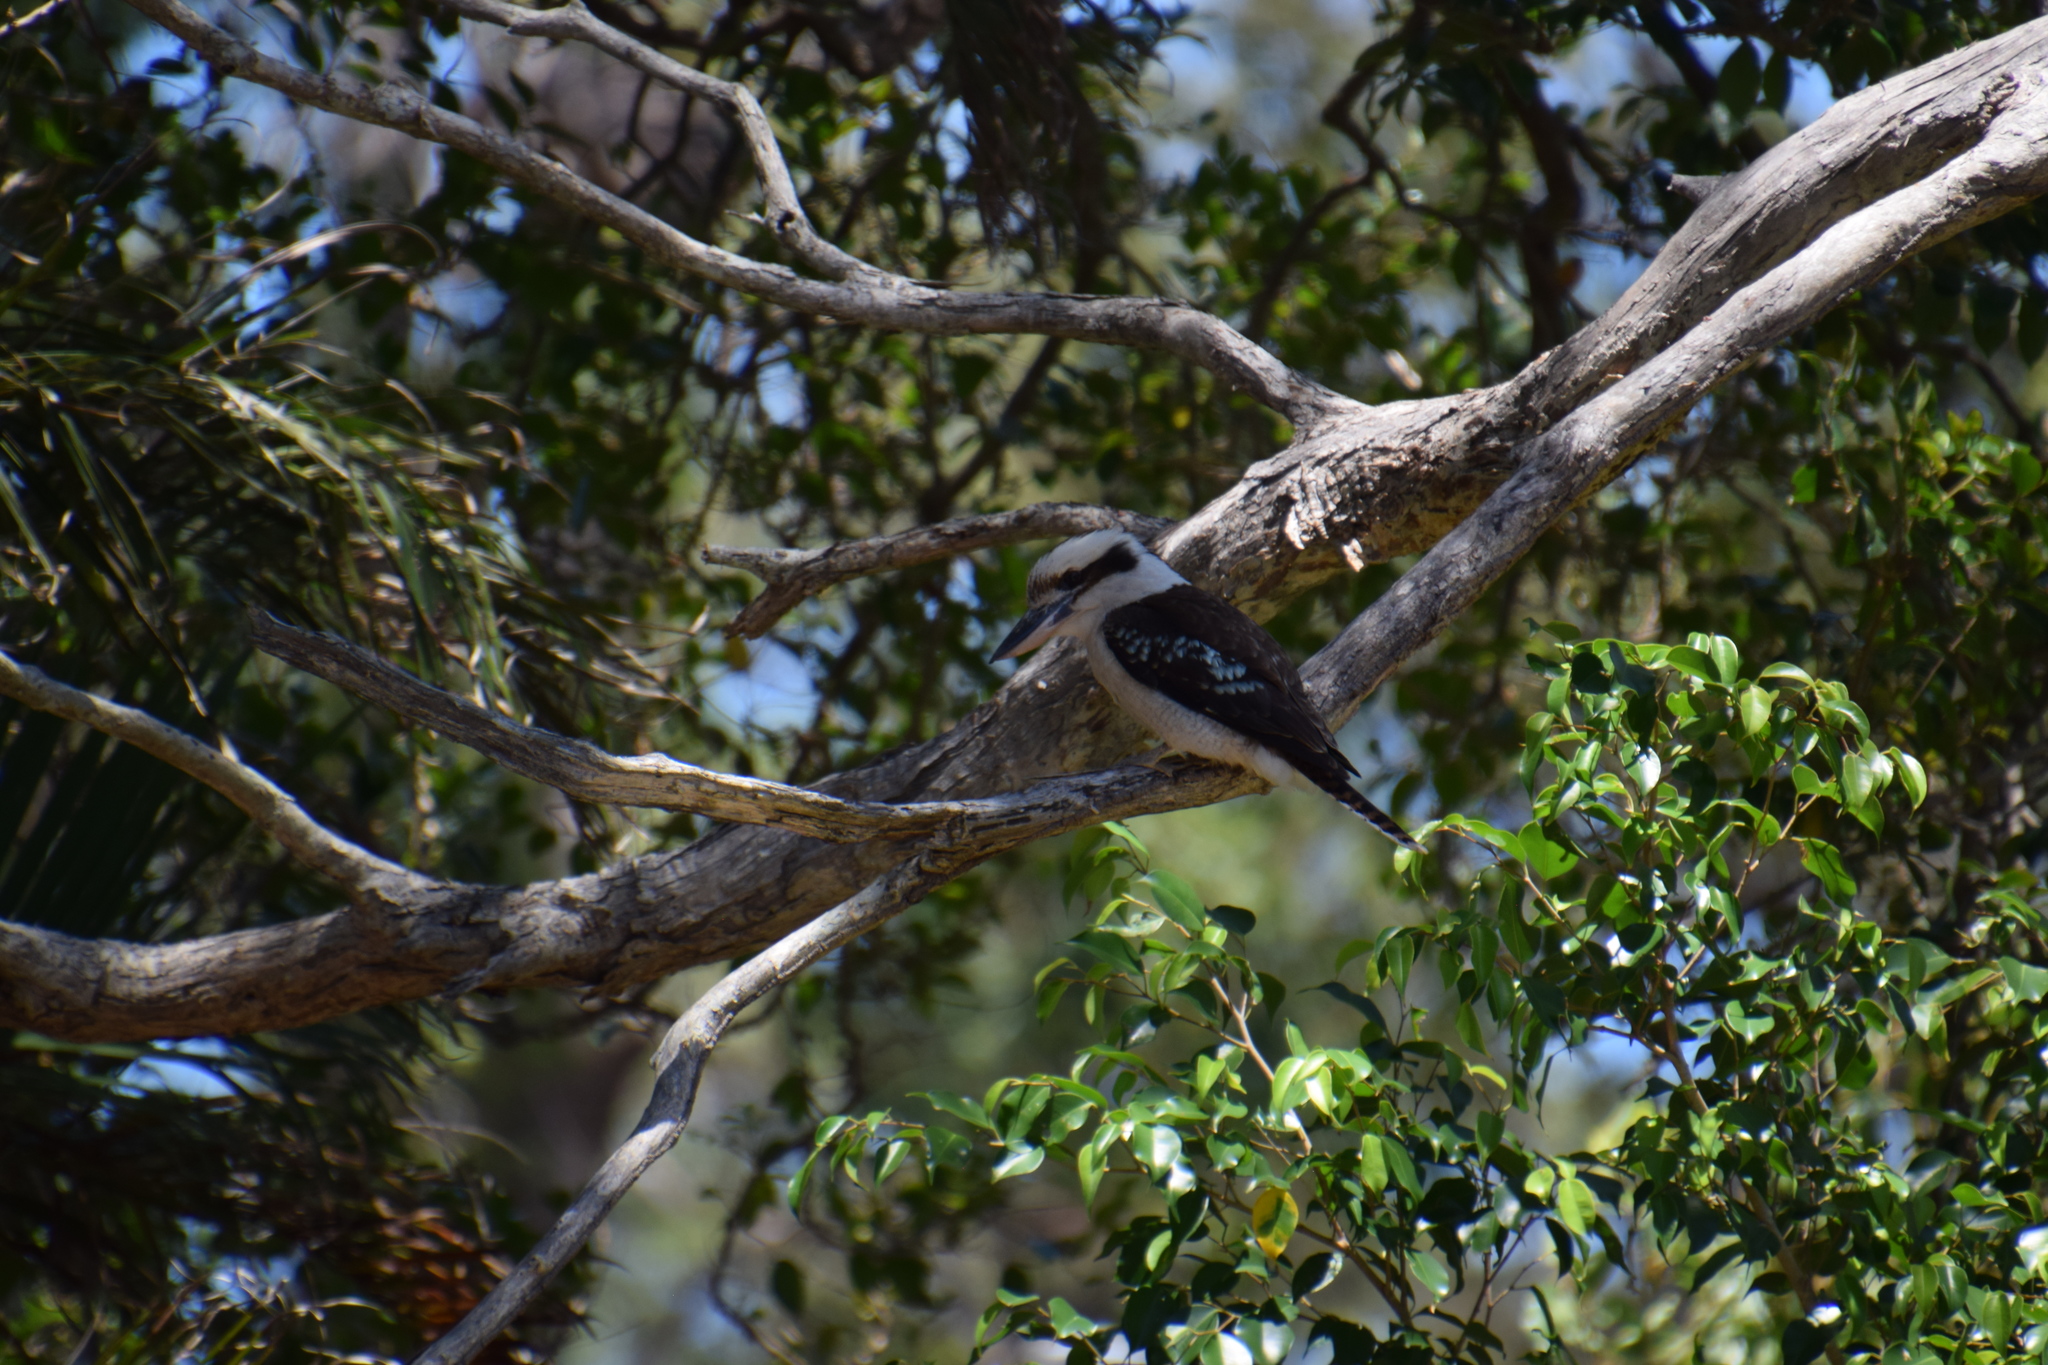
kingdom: Animalia
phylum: Chordata
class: Aves
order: Coraciiformes
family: Alcedinidae
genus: Dacelo
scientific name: Dacelo novaeguineae
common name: Laughing kookaburra
